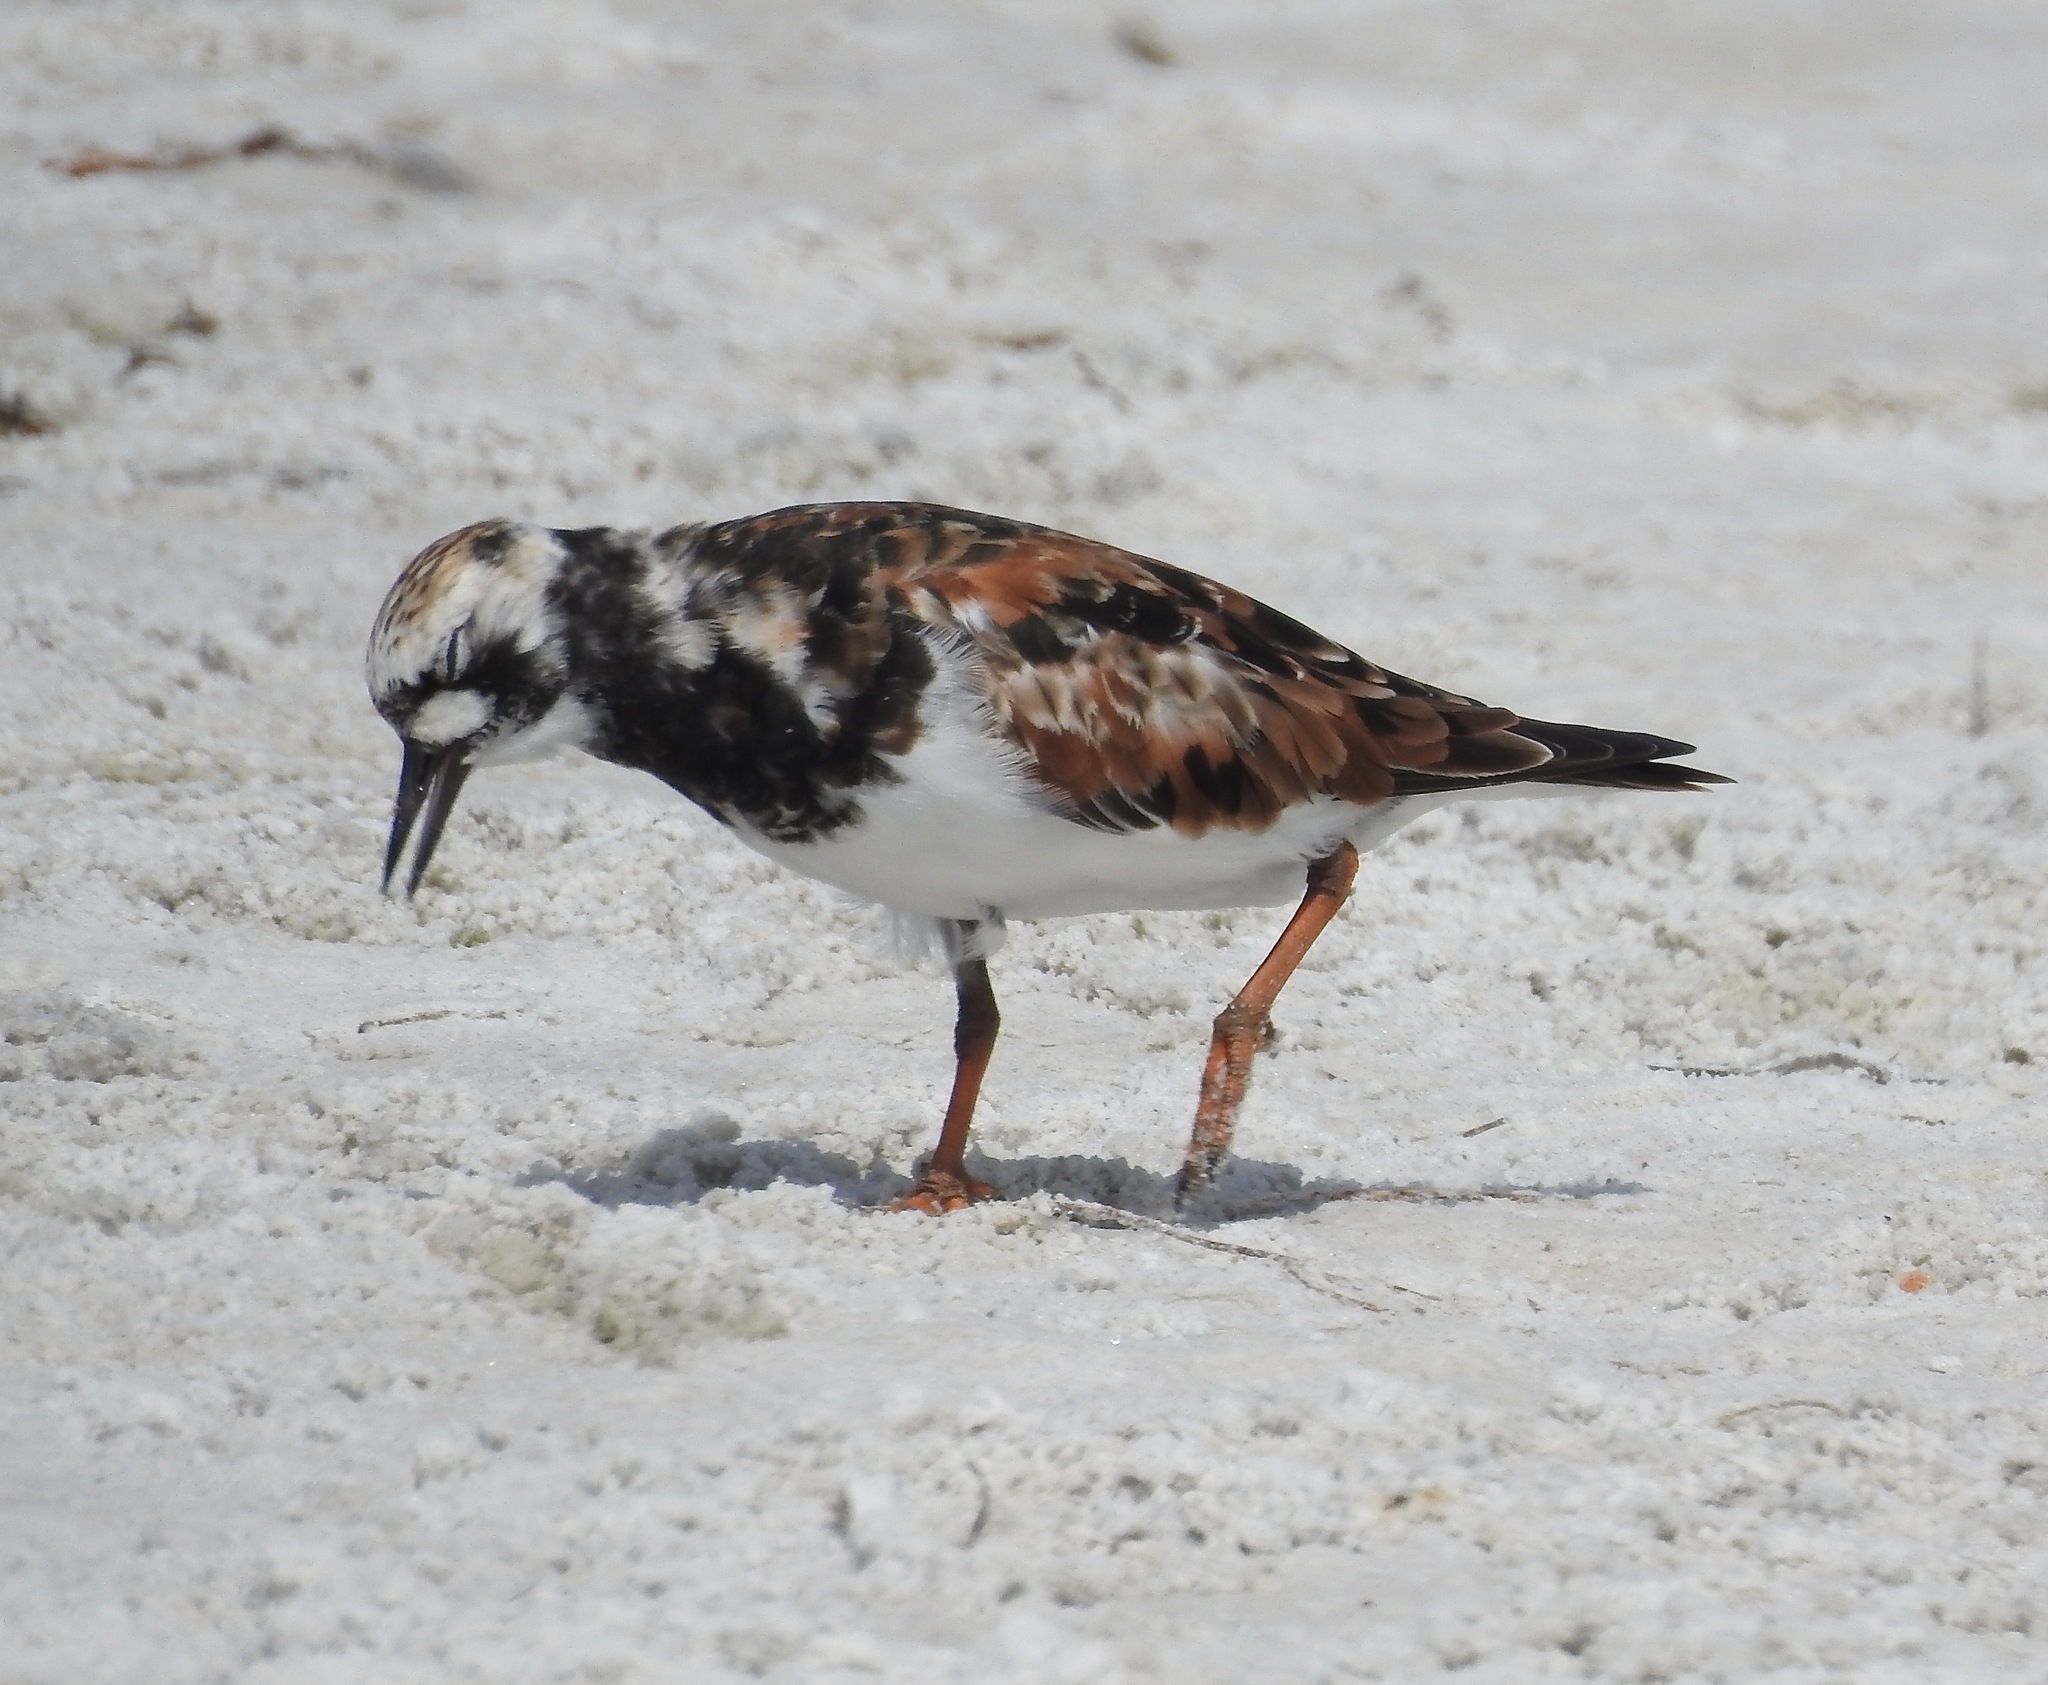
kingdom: Animalia
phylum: Chordata
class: Aves
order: Charadriiformes
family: Scolopacidae
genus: Arenaria
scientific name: Arenaria interpres
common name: Ruddy turnstone
